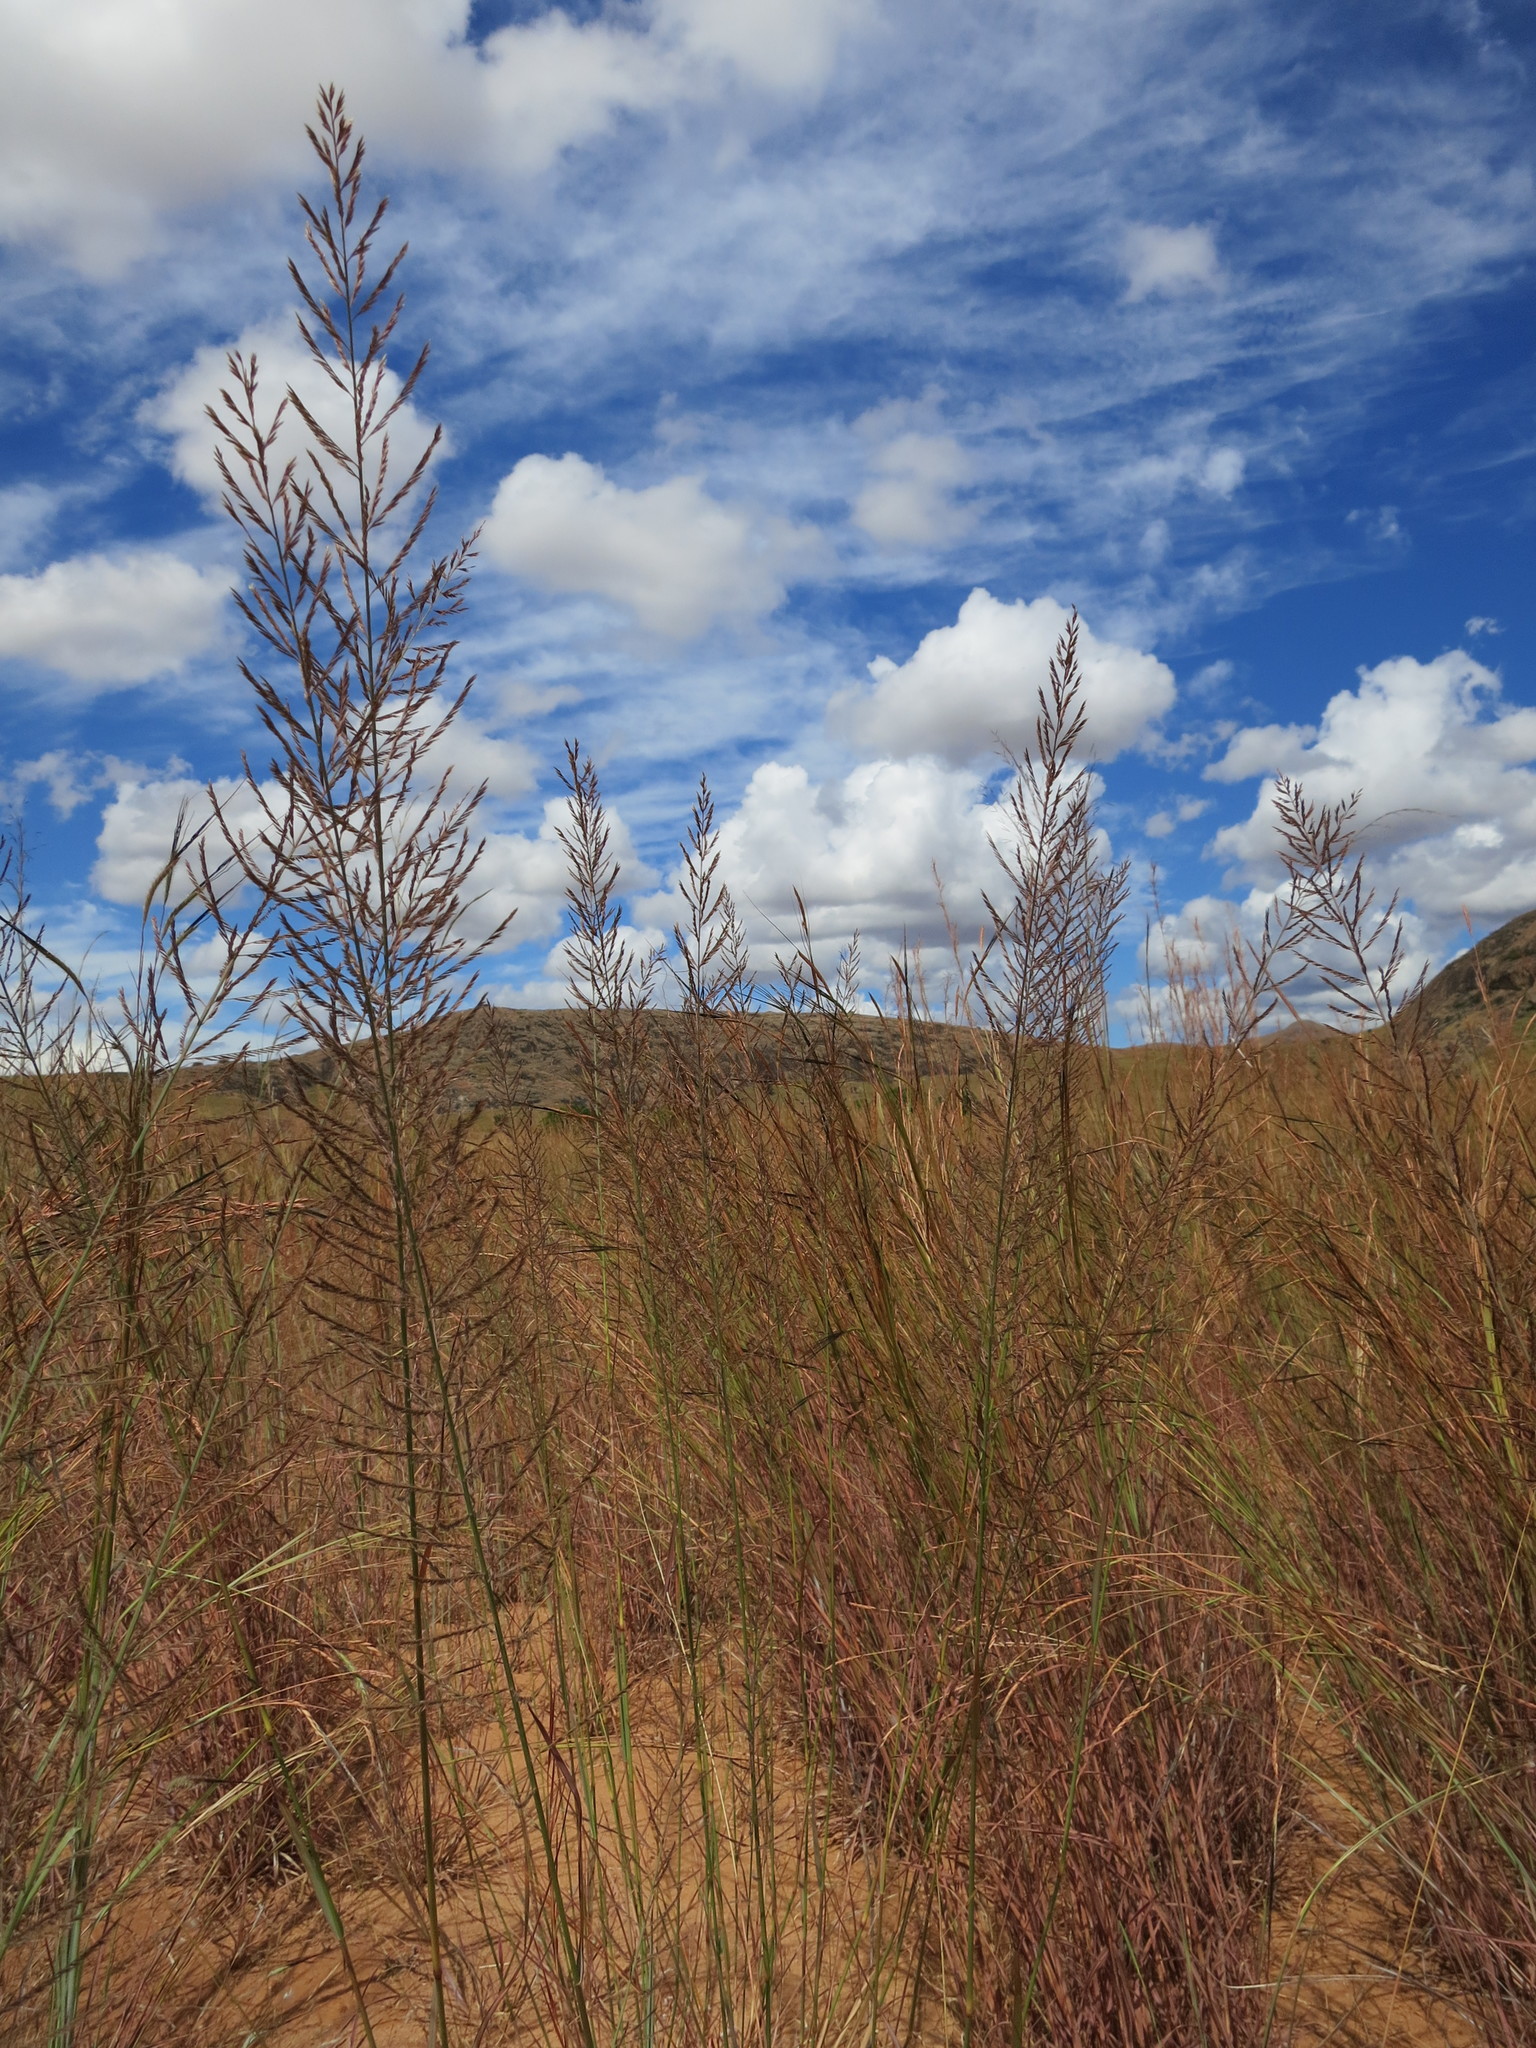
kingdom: Plantae
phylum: Tracheophyta
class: Liliopsida
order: Poales
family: Poaceae
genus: Pogonarthria
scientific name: Pogonarthria squarrosa
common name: Grass
